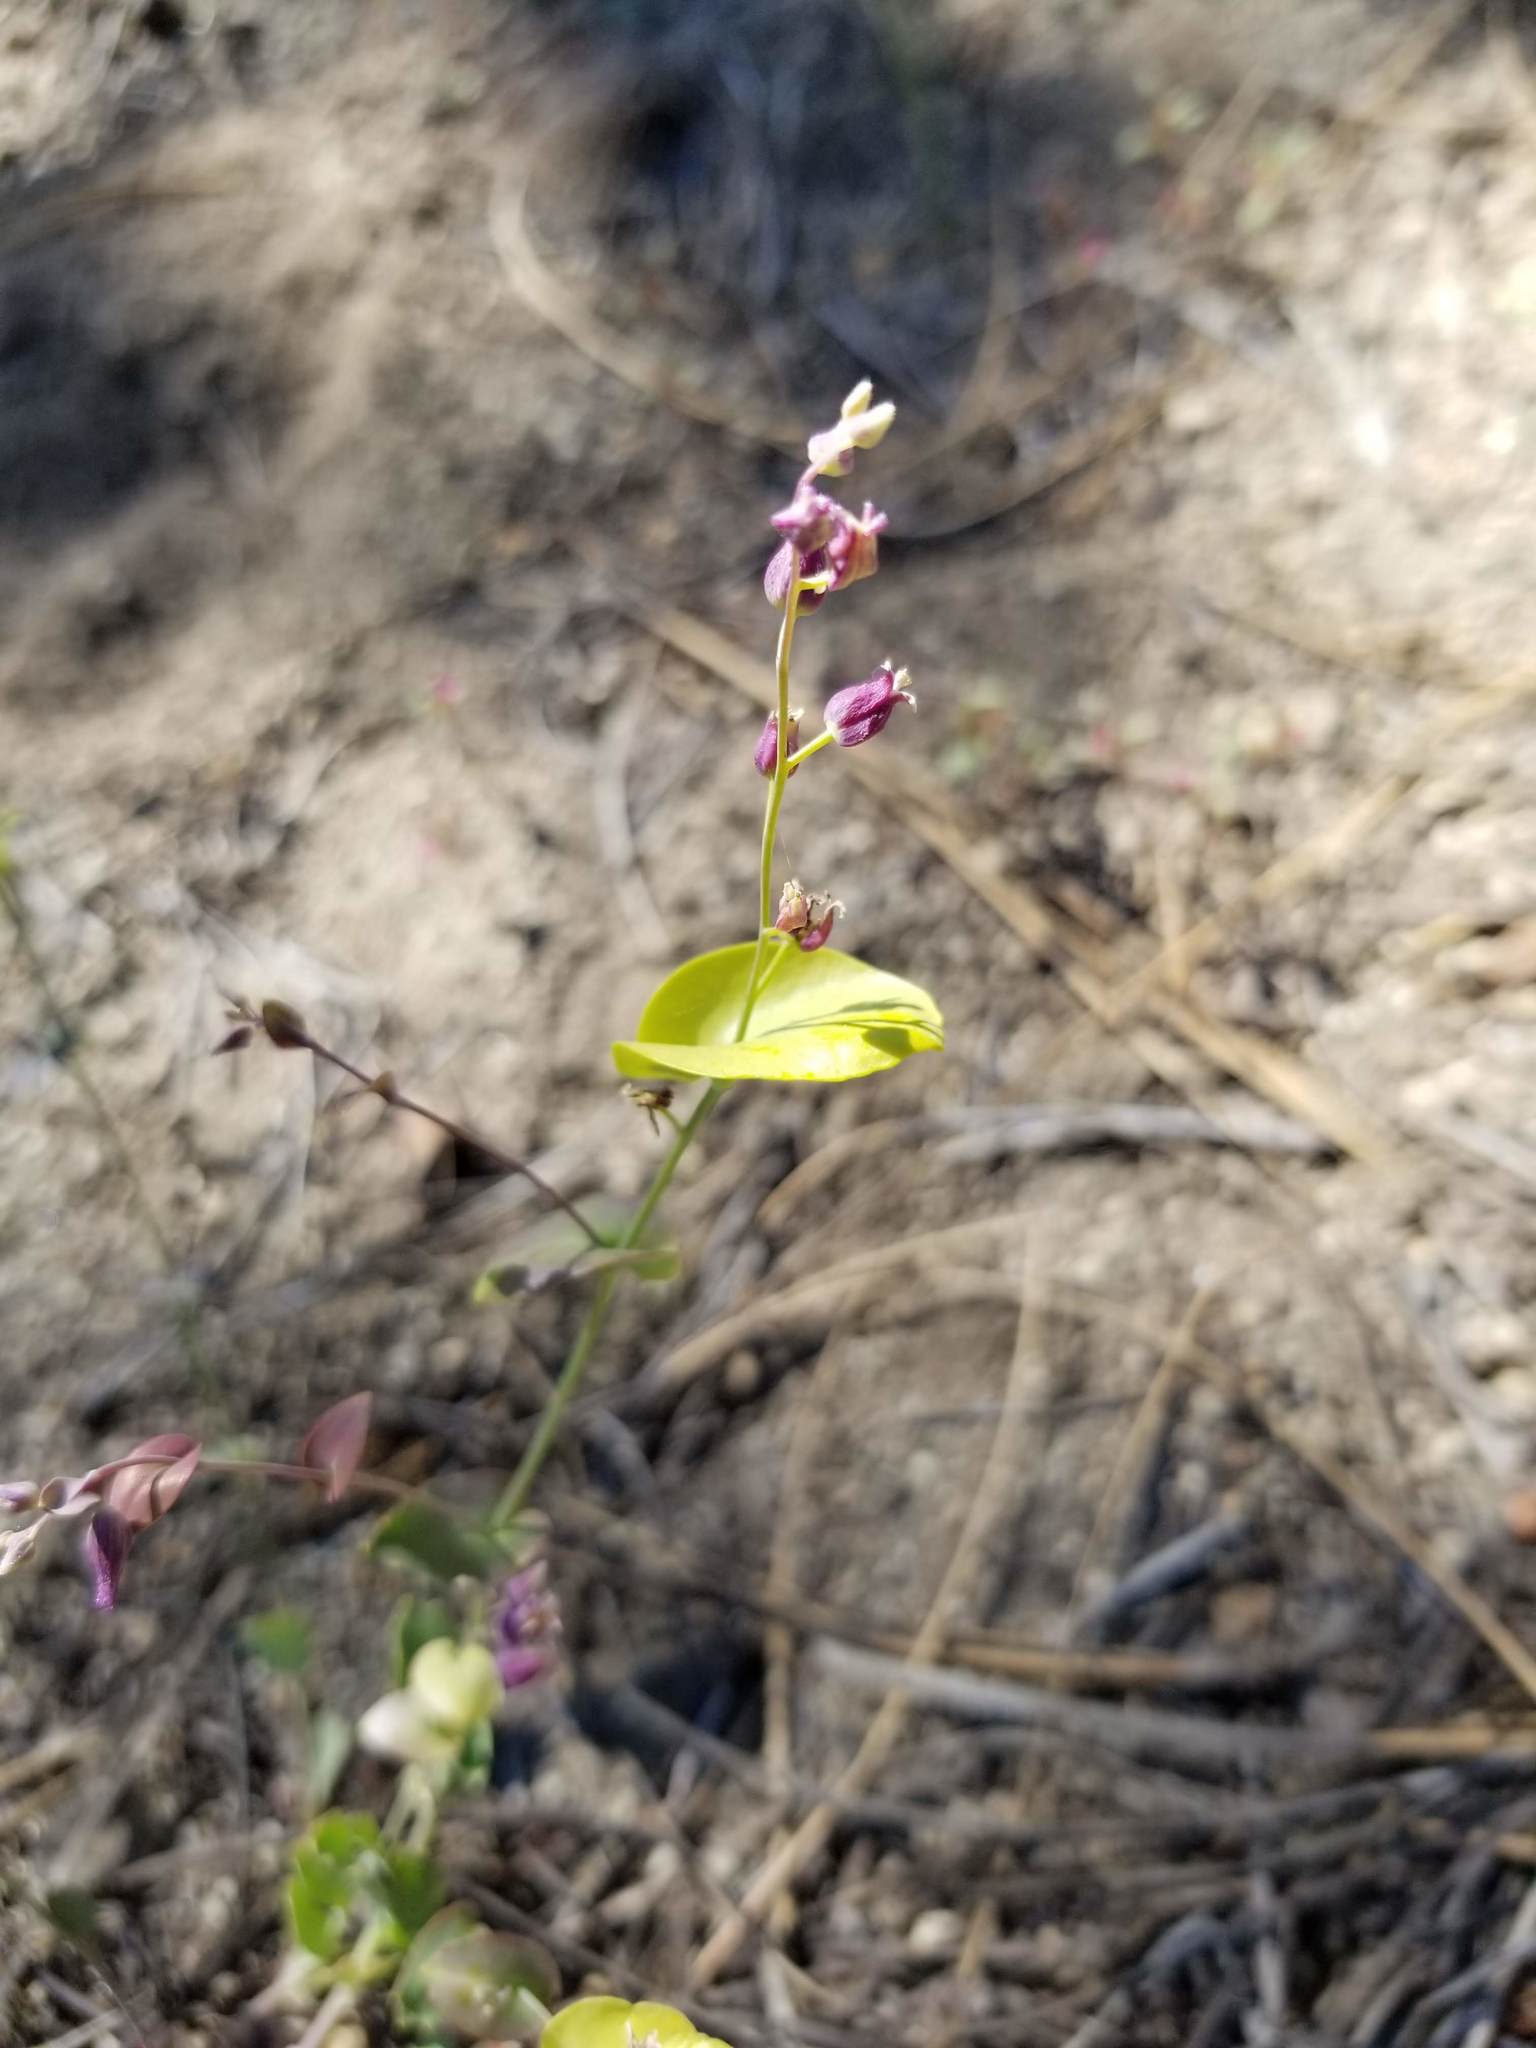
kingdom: Plantae
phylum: Tracheophyta
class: Magnoliopsida
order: Brassicales
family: Brassicaceae
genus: Streptanthus
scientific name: Streptanthus tortuosus
